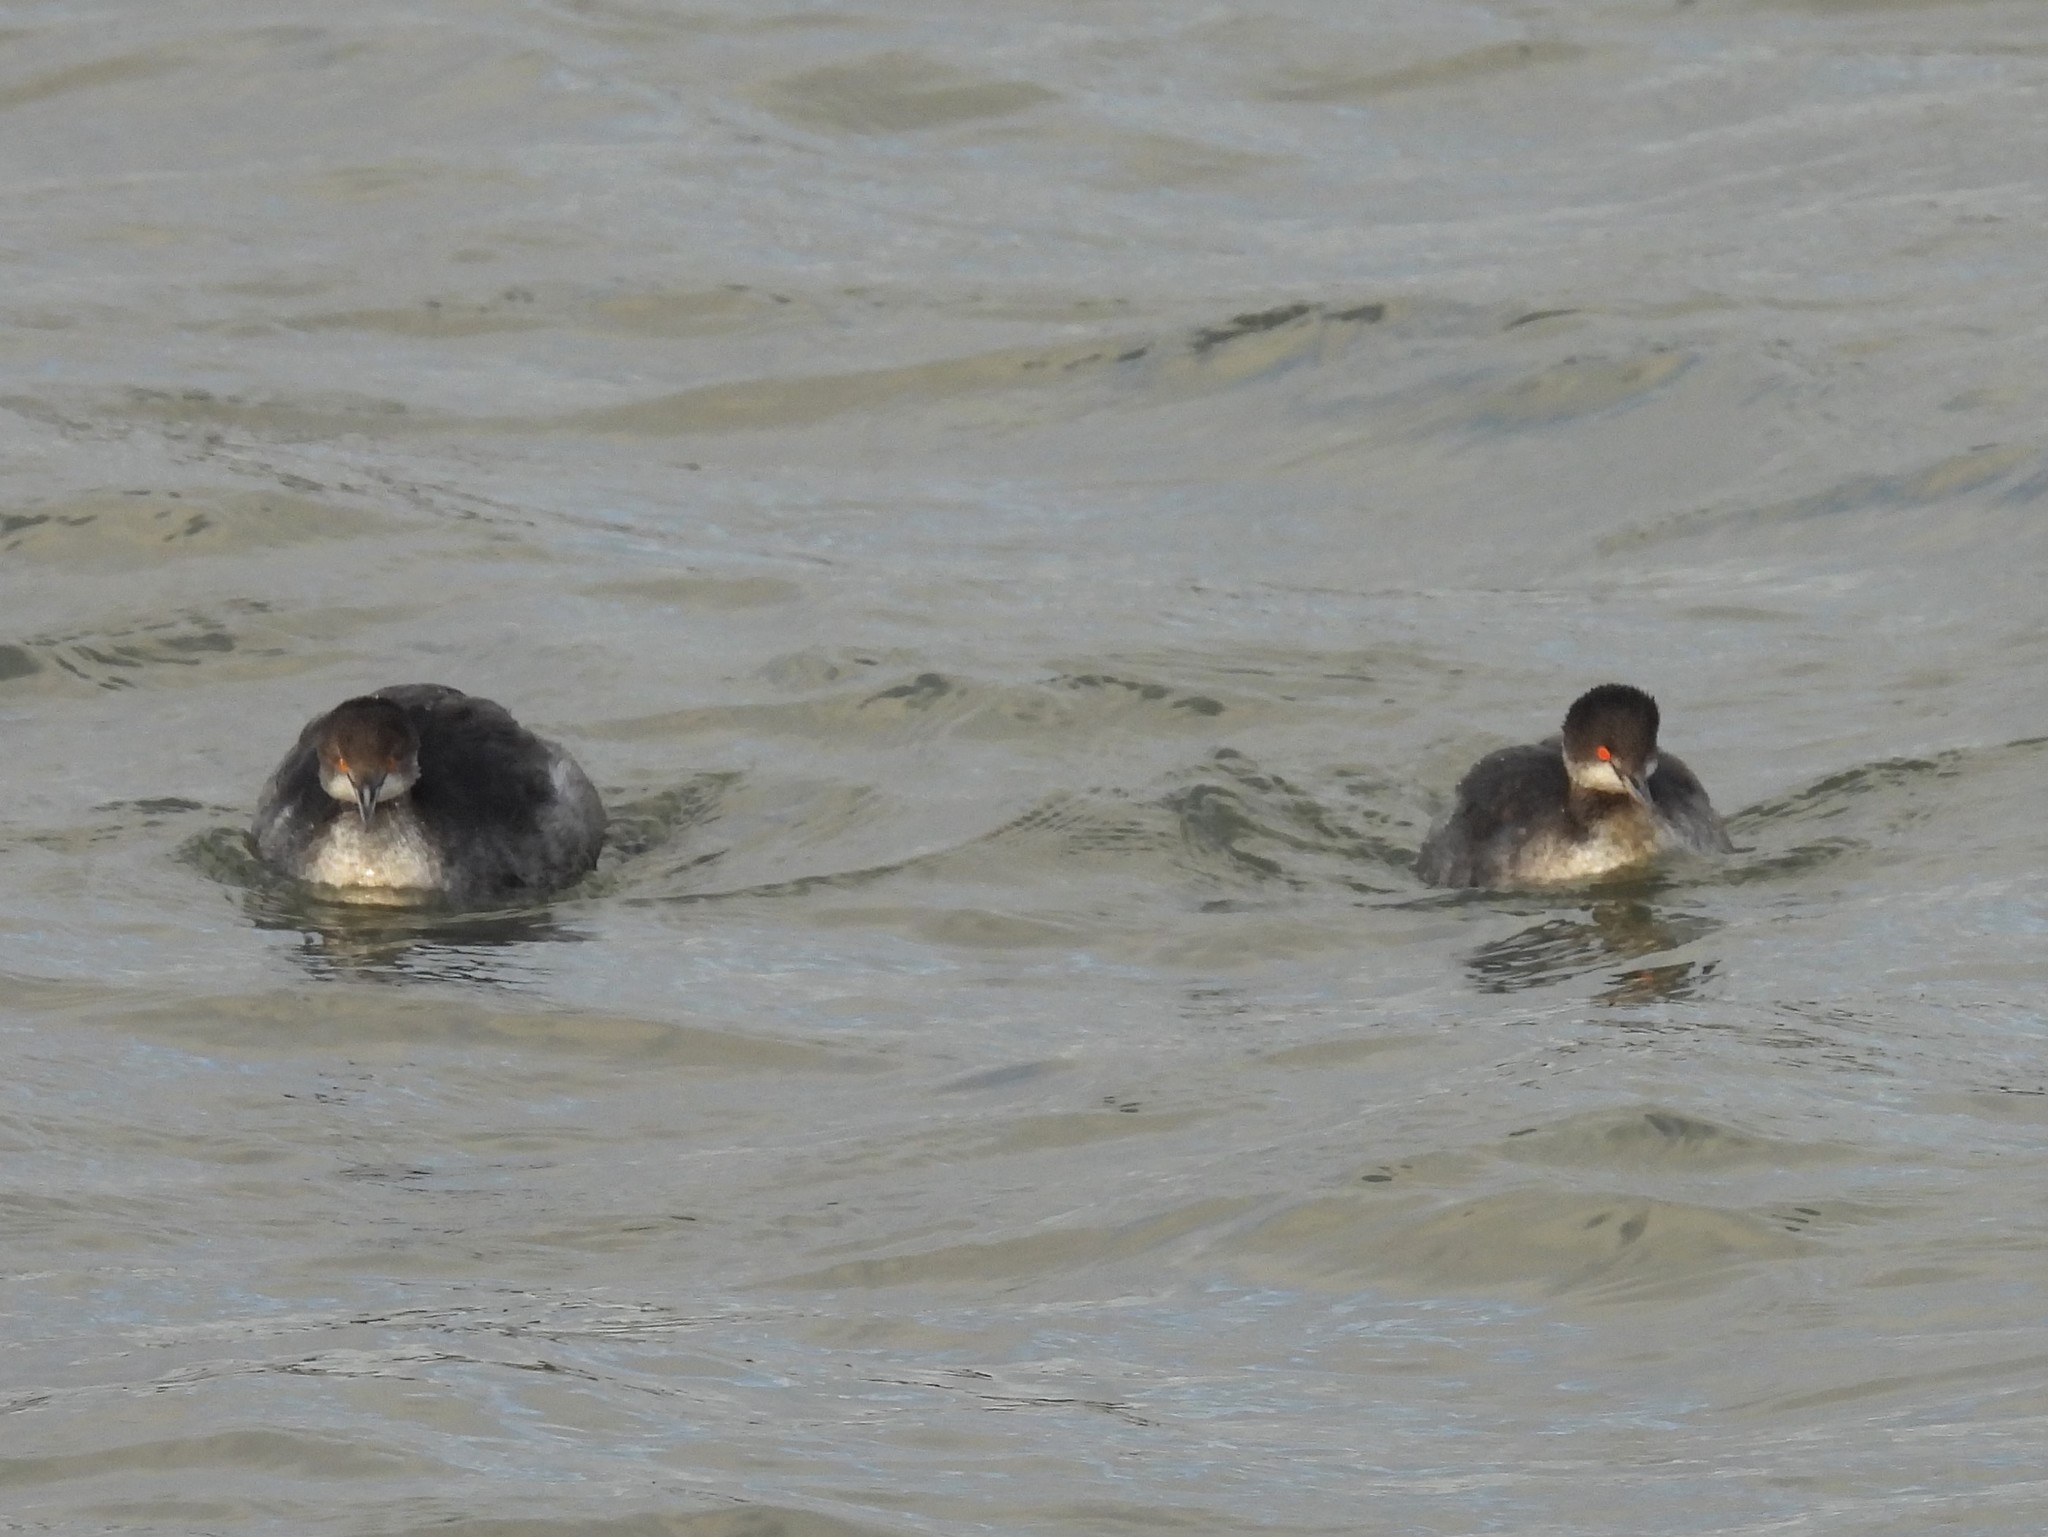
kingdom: Animalia
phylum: Chordata
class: Aves
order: Podicipediformes
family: Podicipedidae
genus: Podiceps
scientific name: Podiceps nigricollis
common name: Black-necked grebe
